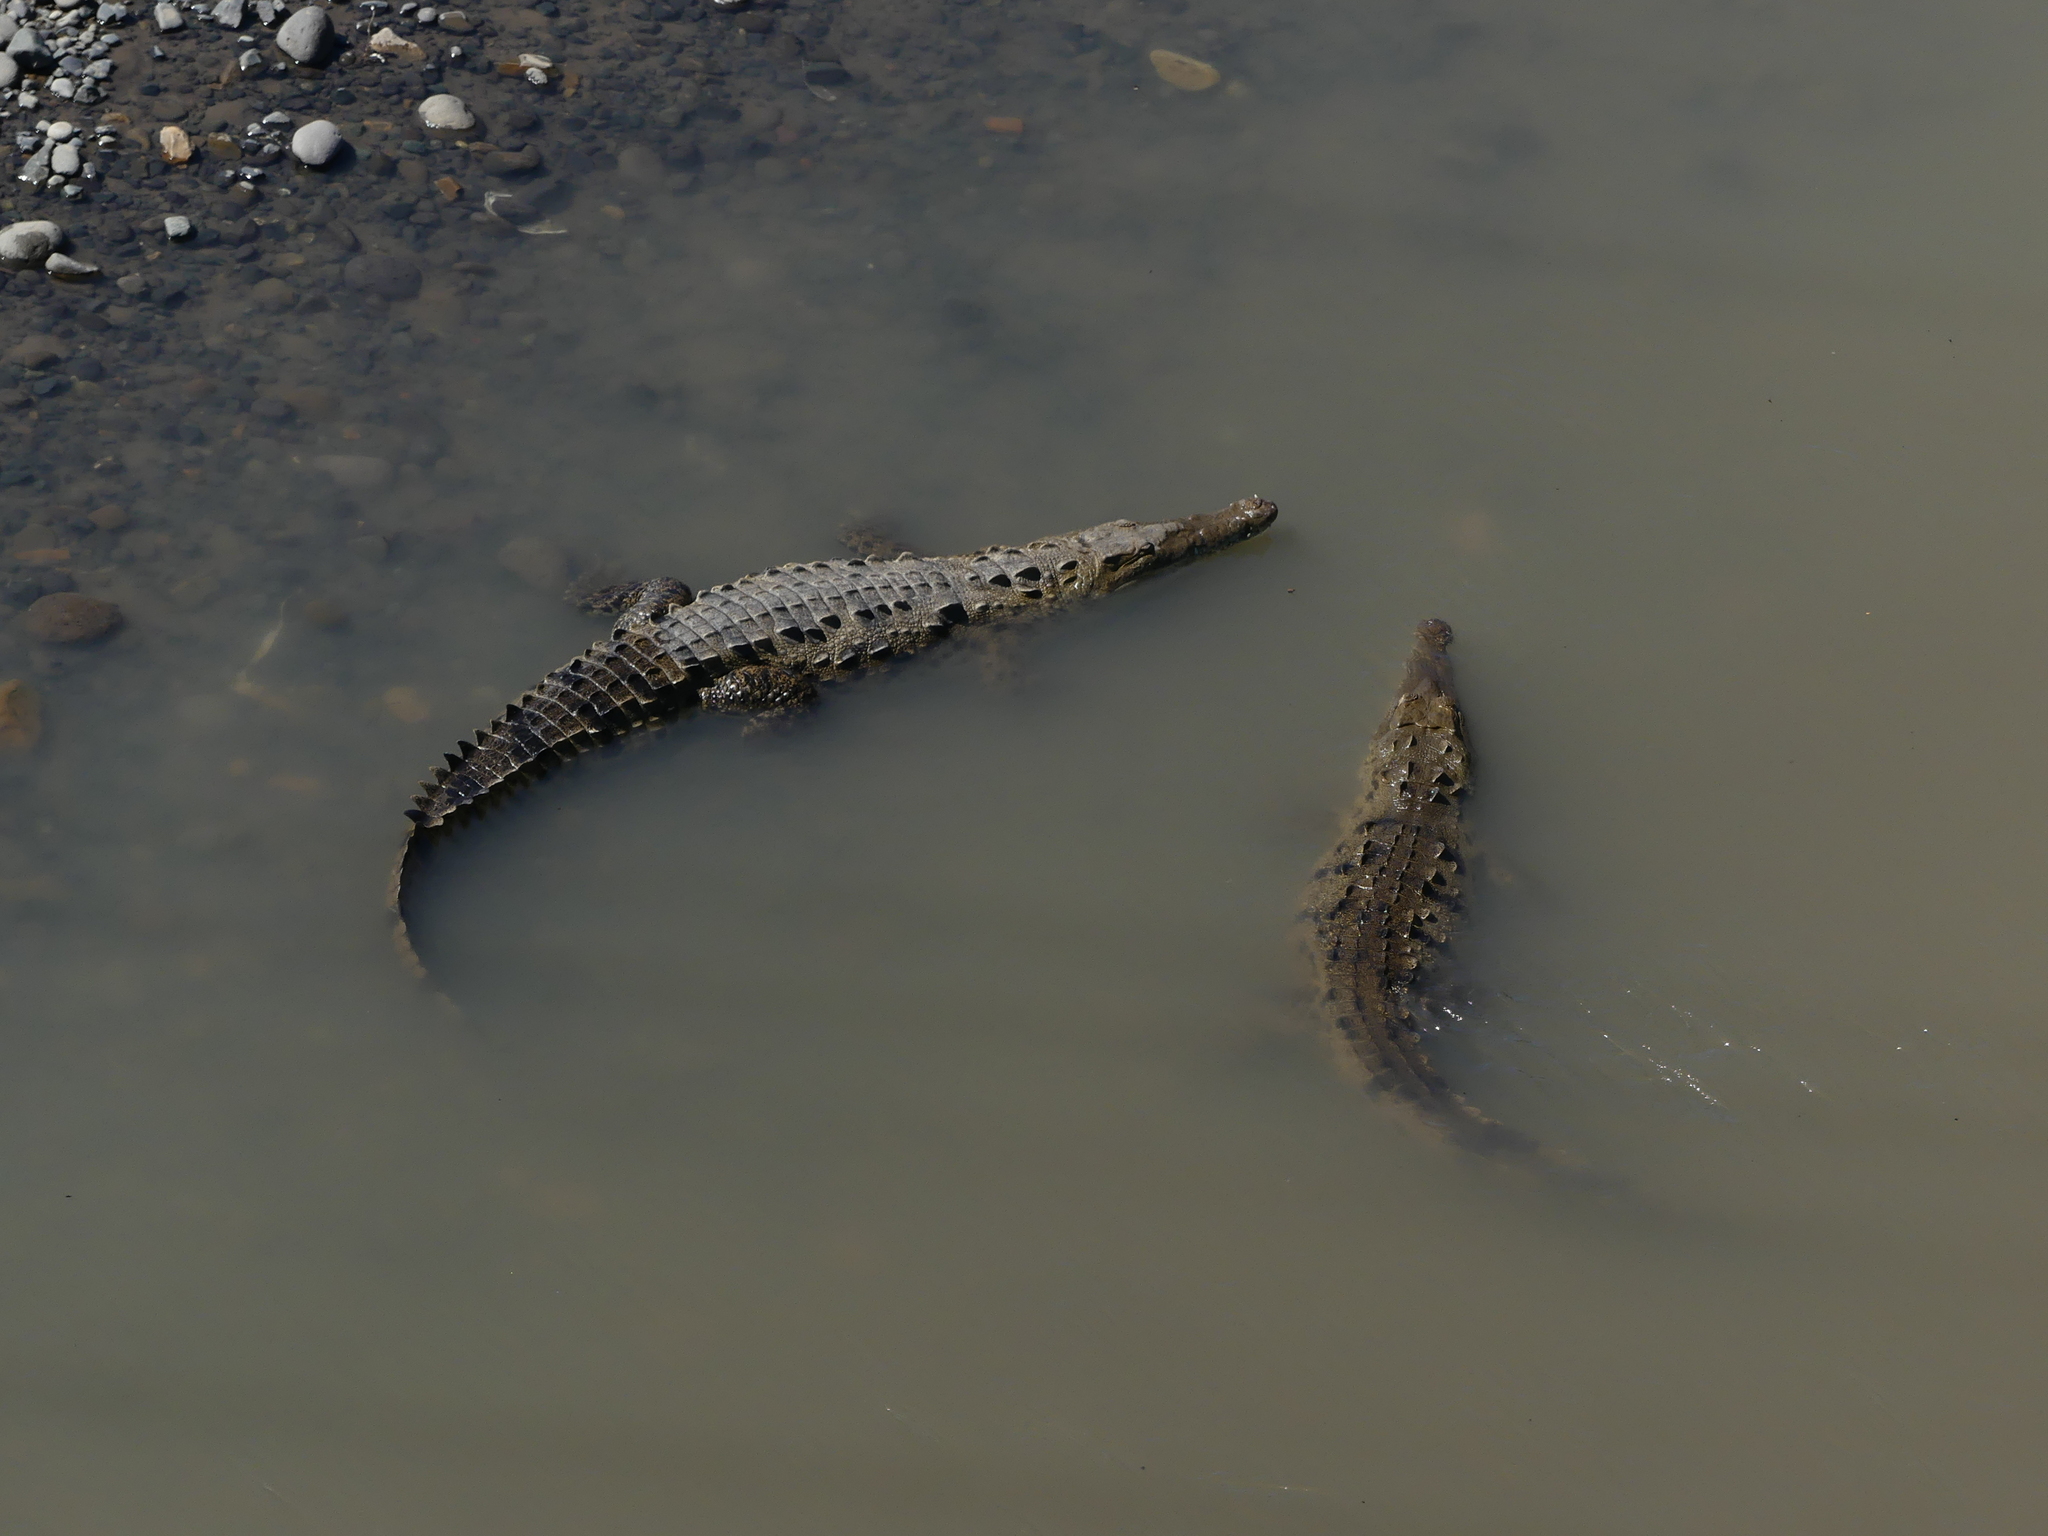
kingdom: Animalia
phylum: Chordata
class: Crocodylia
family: Crocodylidae
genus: Crocodylus
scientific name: Crocodylus acutus
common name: American crocodile
